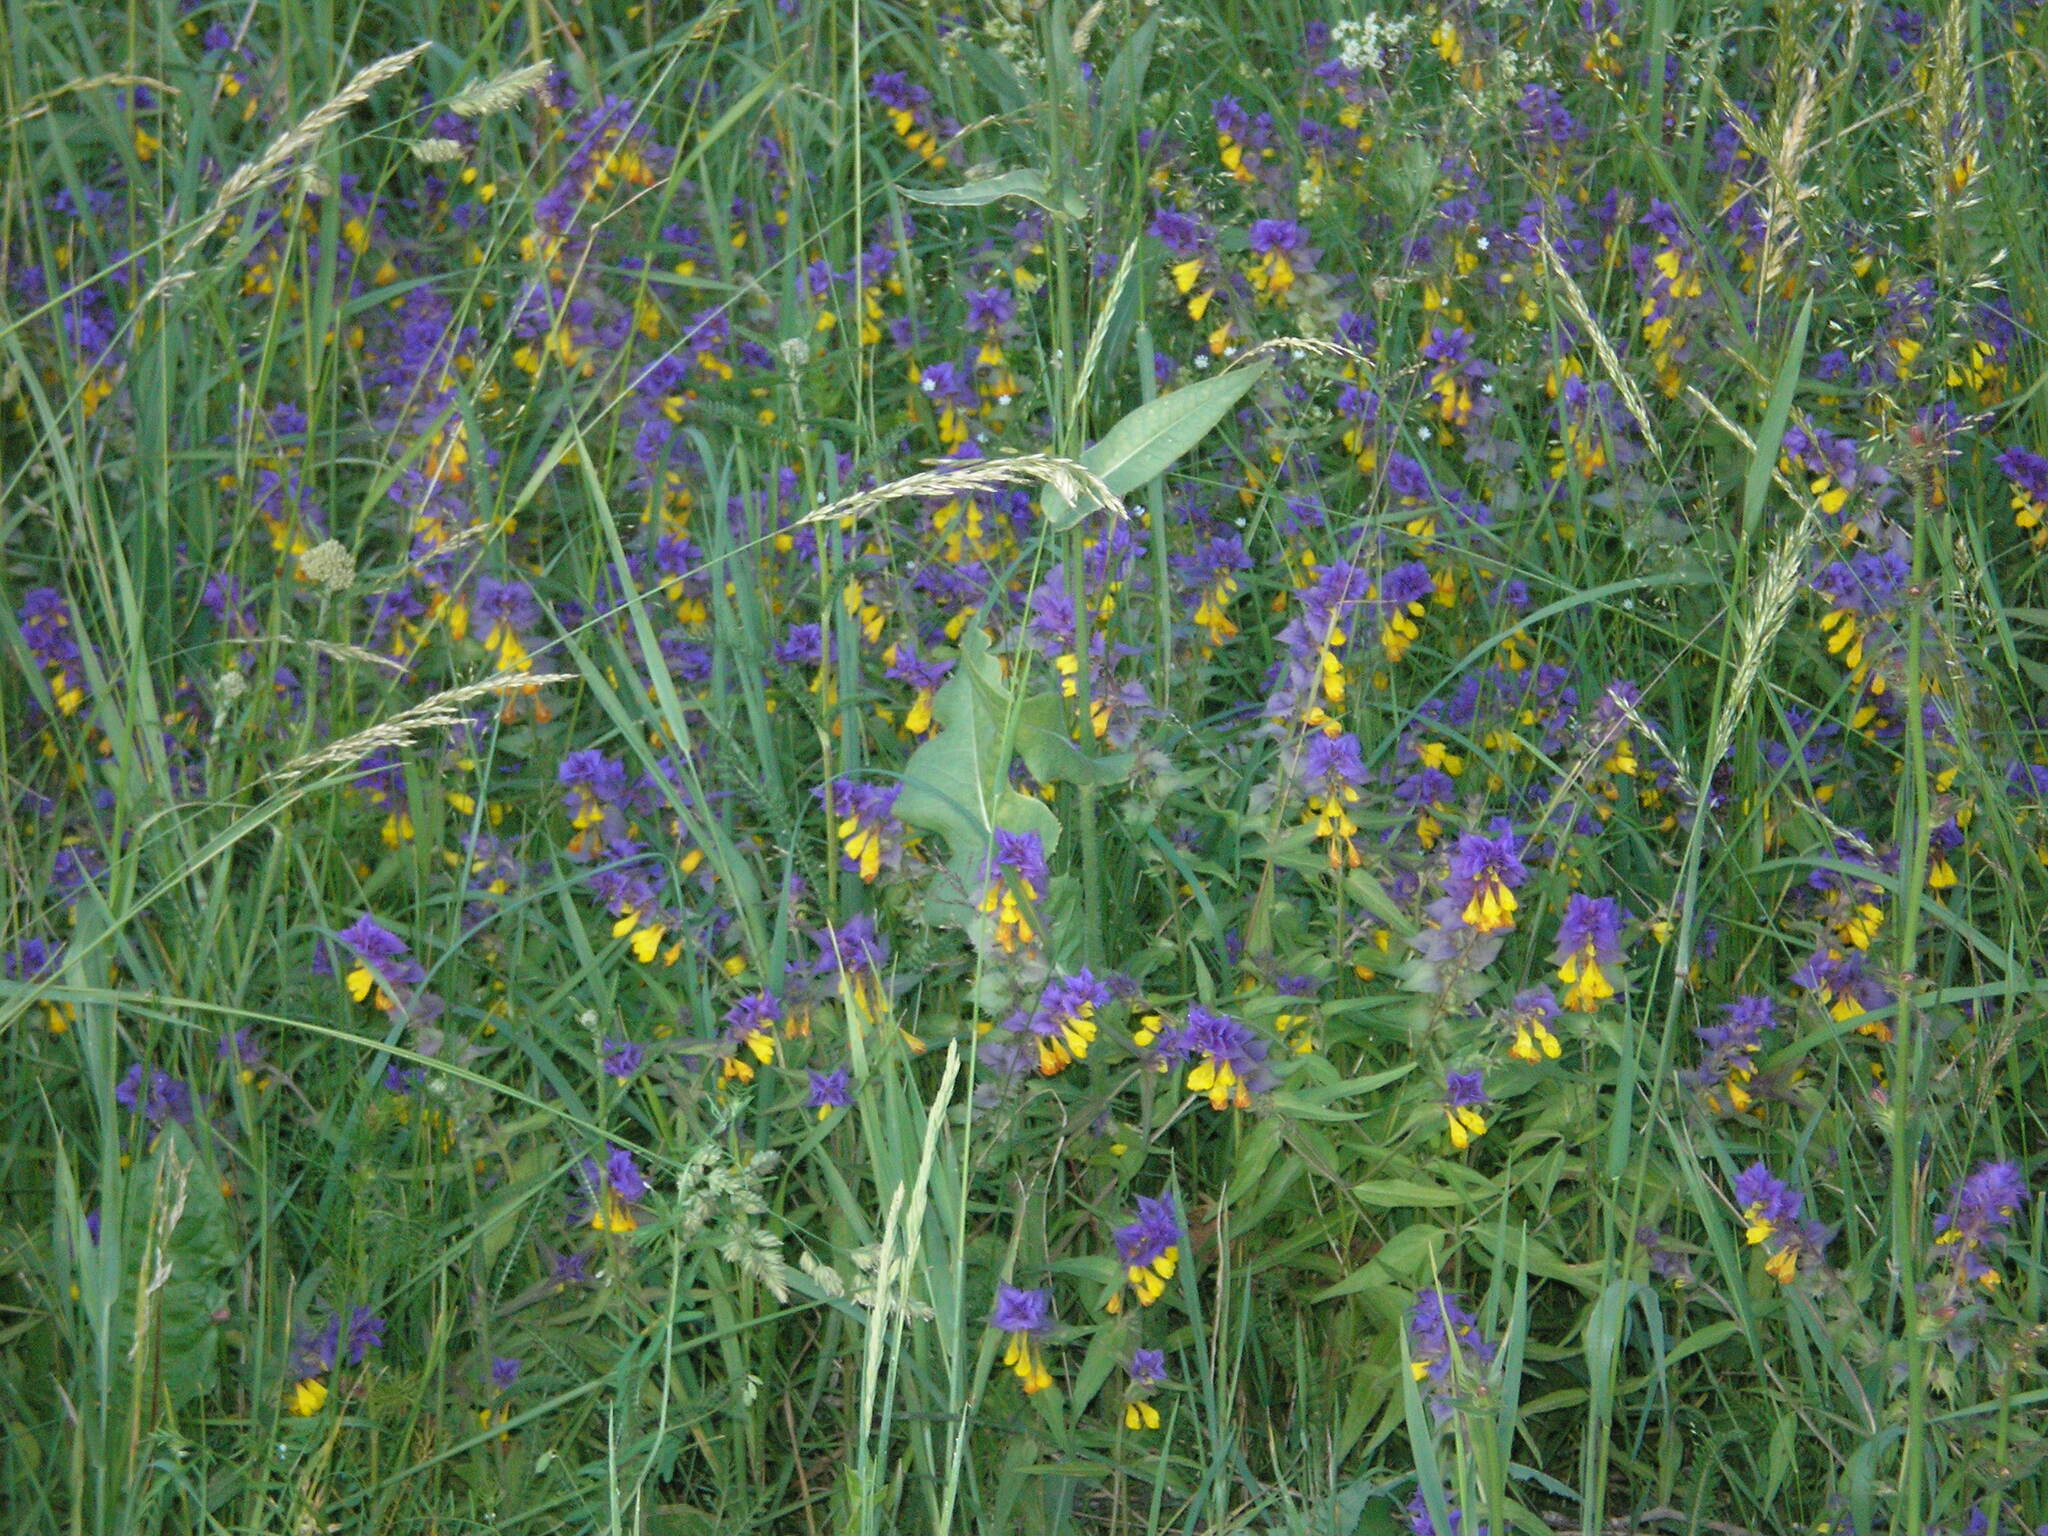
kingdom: Plantae
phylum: Tracheophyta
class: Magnoliopsida
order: Lamiales
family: Orobanchaceae
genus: Melampyrum
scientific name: Melampyrum nemorosum
